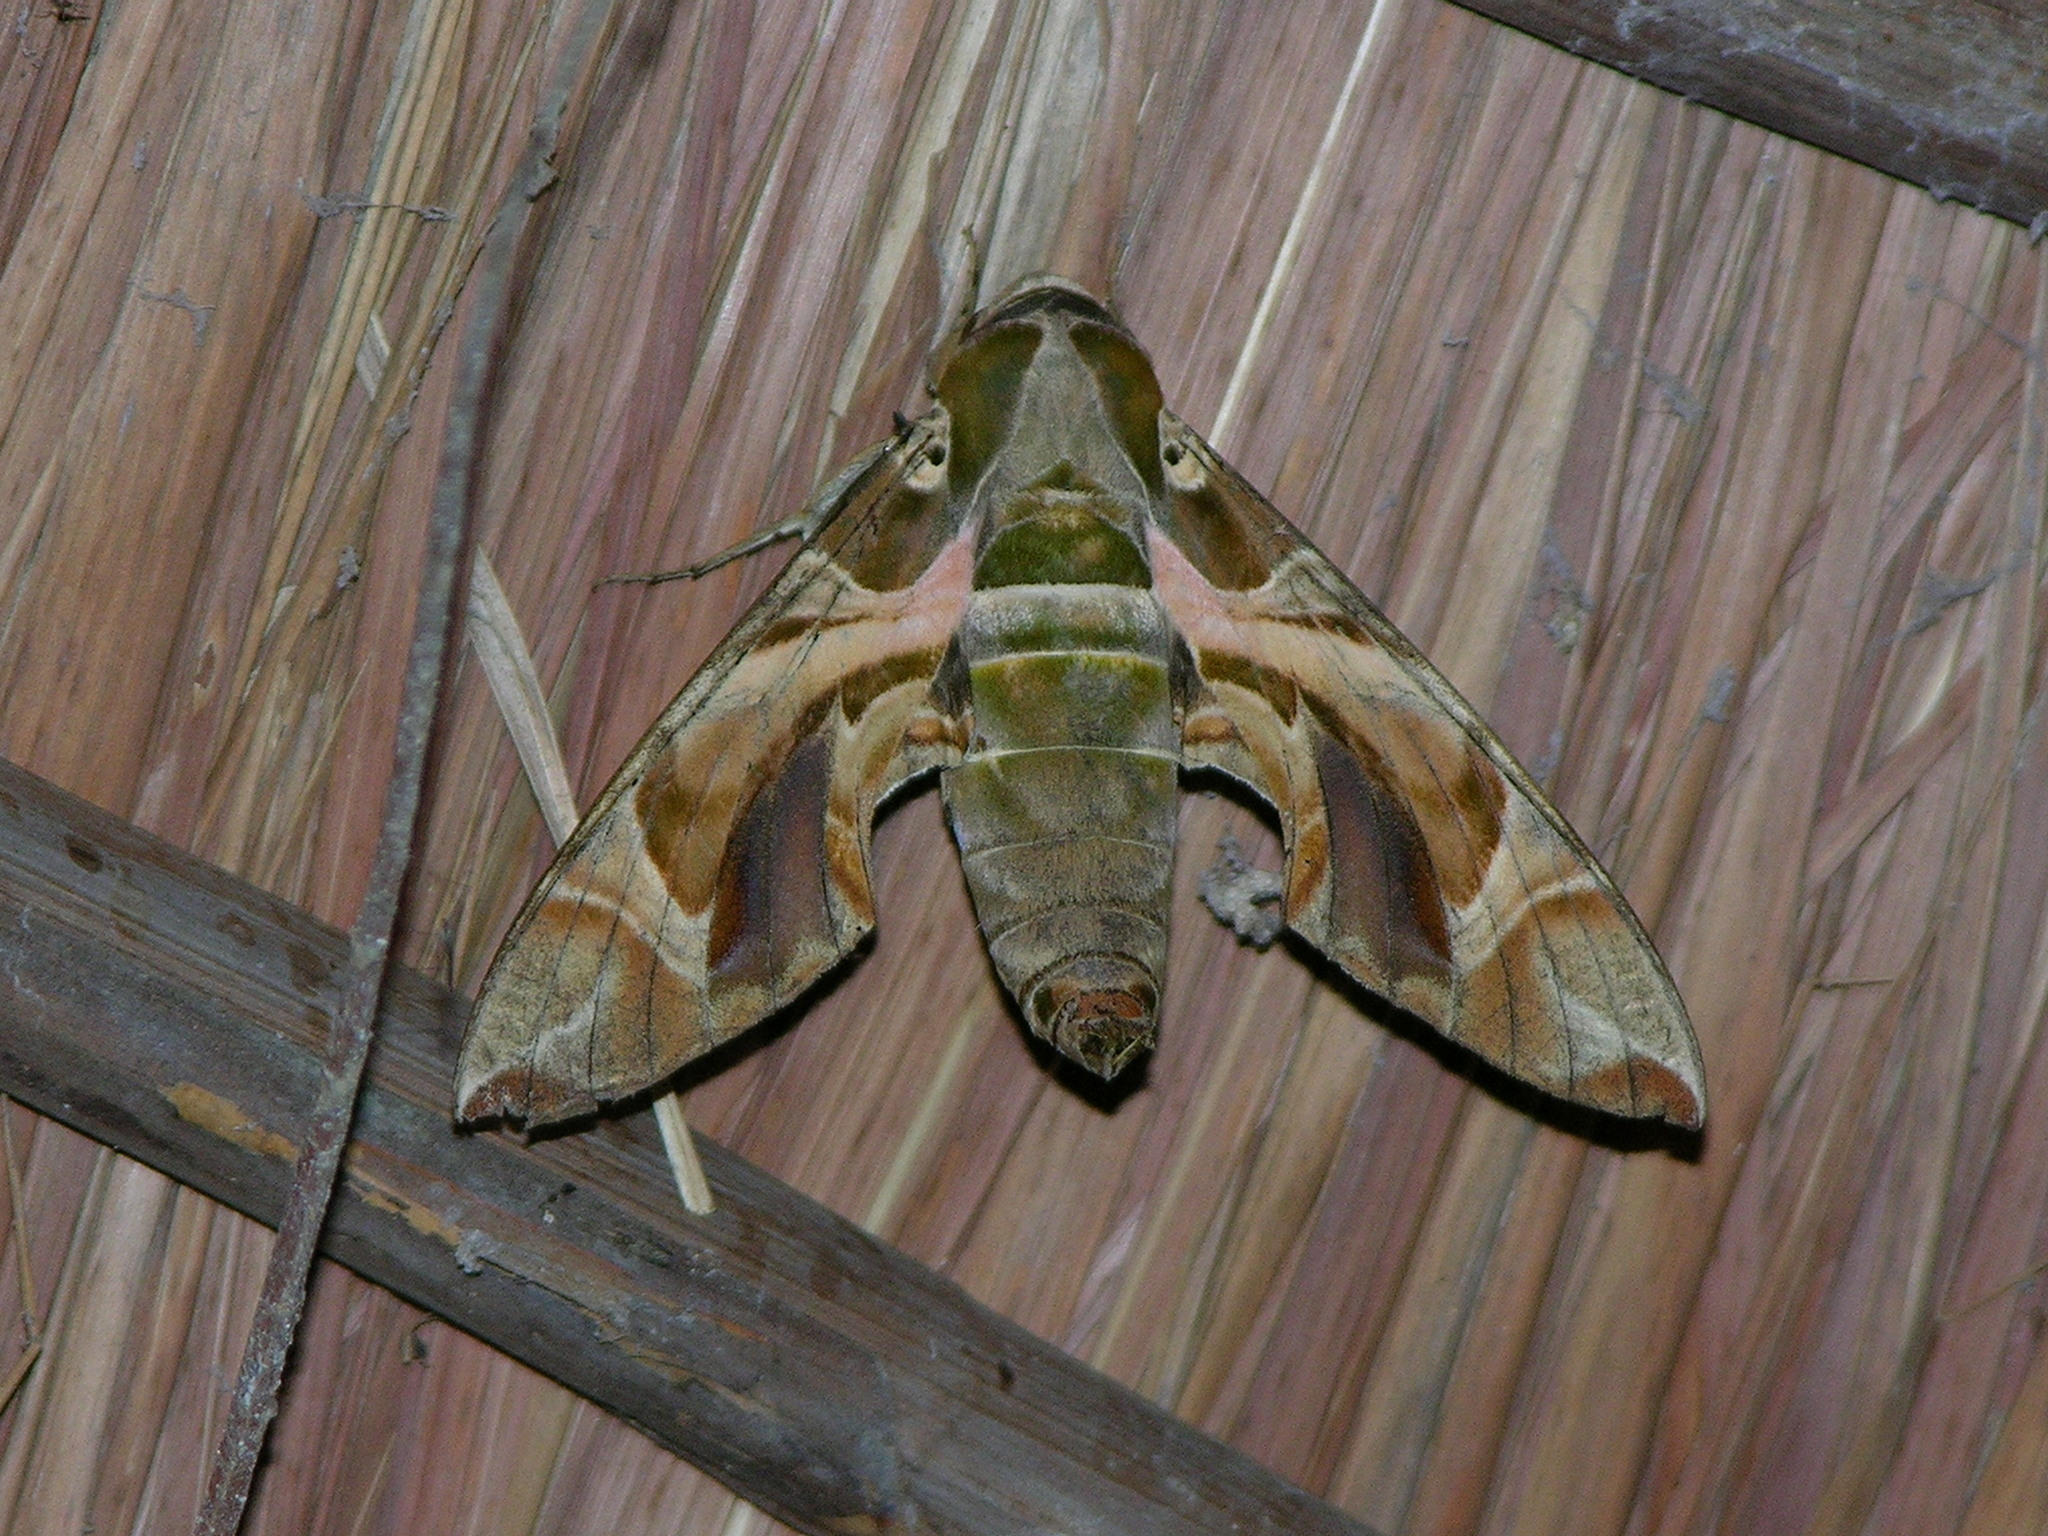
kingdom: Animalia
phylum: Arthropoda
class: Insecta
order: Lepidoptera
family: Sphingidae
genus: Daphnis
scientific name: Daphnis nerii
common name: Oleander hawk-moth
